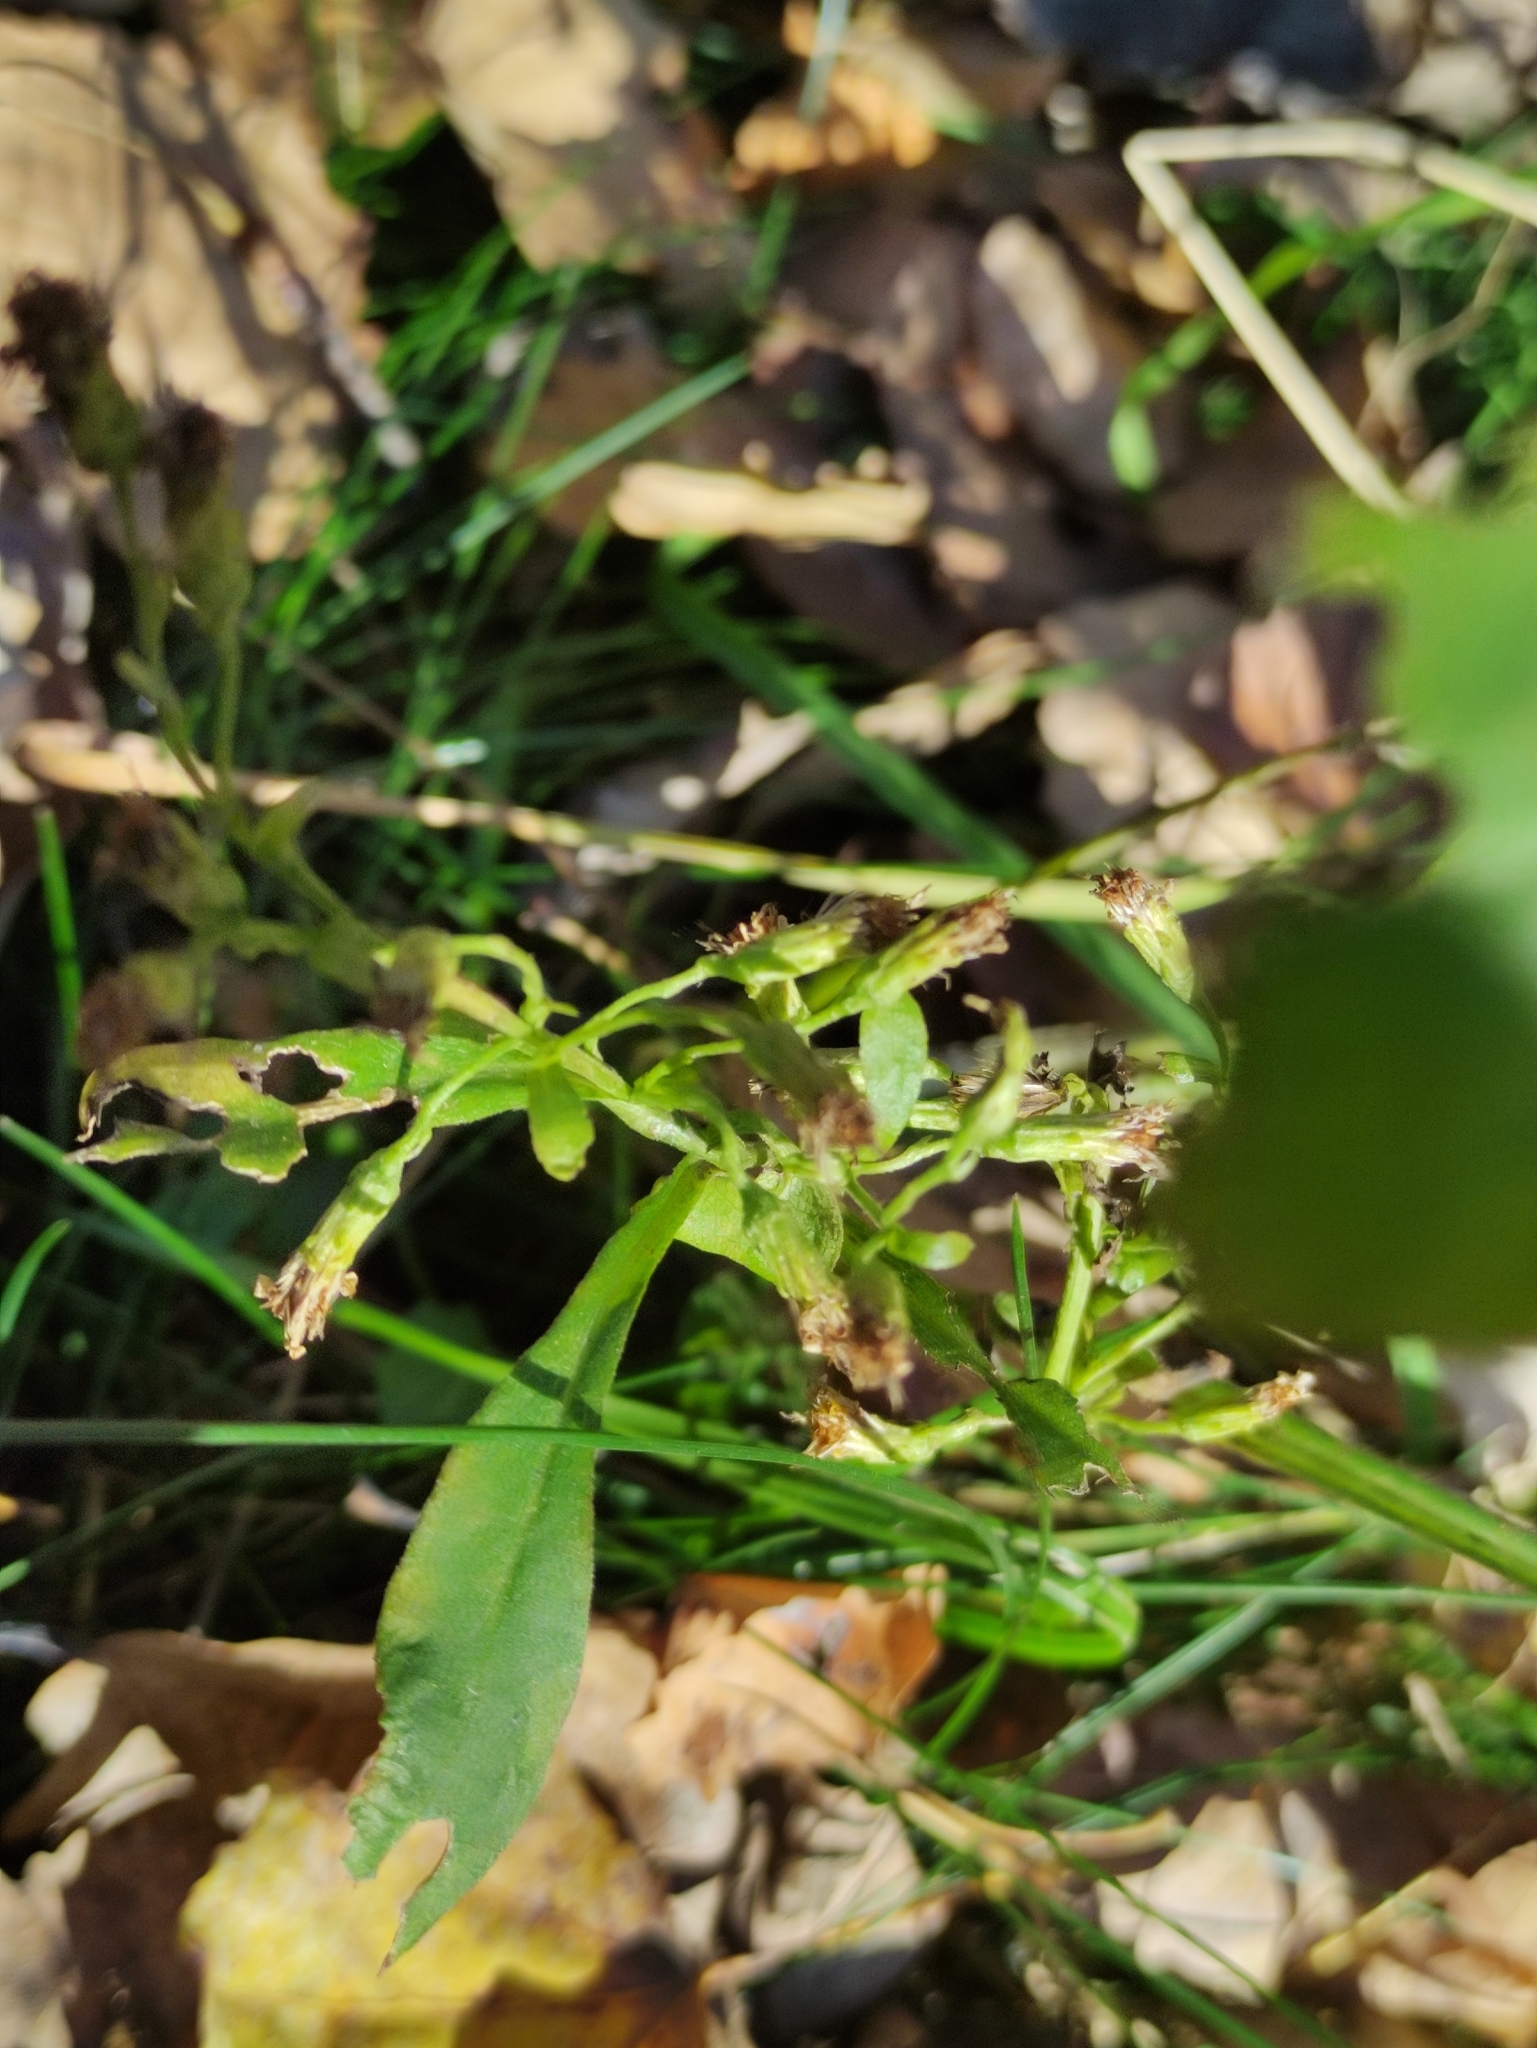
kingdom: Plantae
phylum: Tracheophyta
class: Magnoliopsida
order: Asterales
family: Asteraceae
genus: Erigeron
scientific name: Erigeron canadensis
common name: Canadian fleabane
